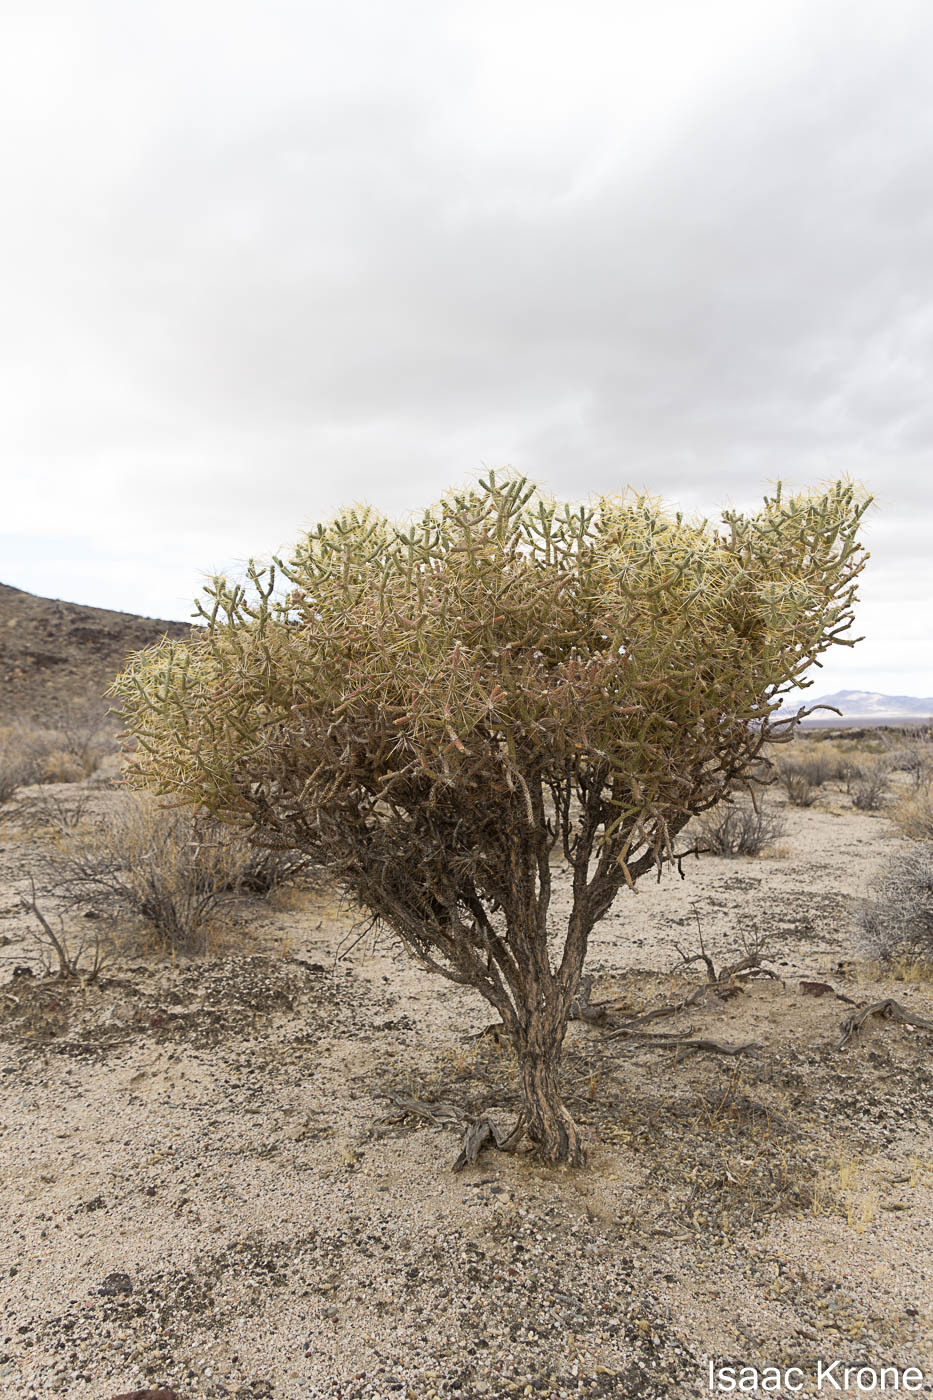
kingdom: Plantae
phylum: Tracheophyta
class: Magnoliopsida
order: Caryophyllales
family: Cactaceae
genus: Cylindropuntia
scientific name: Cylindropuntia ramosissima
